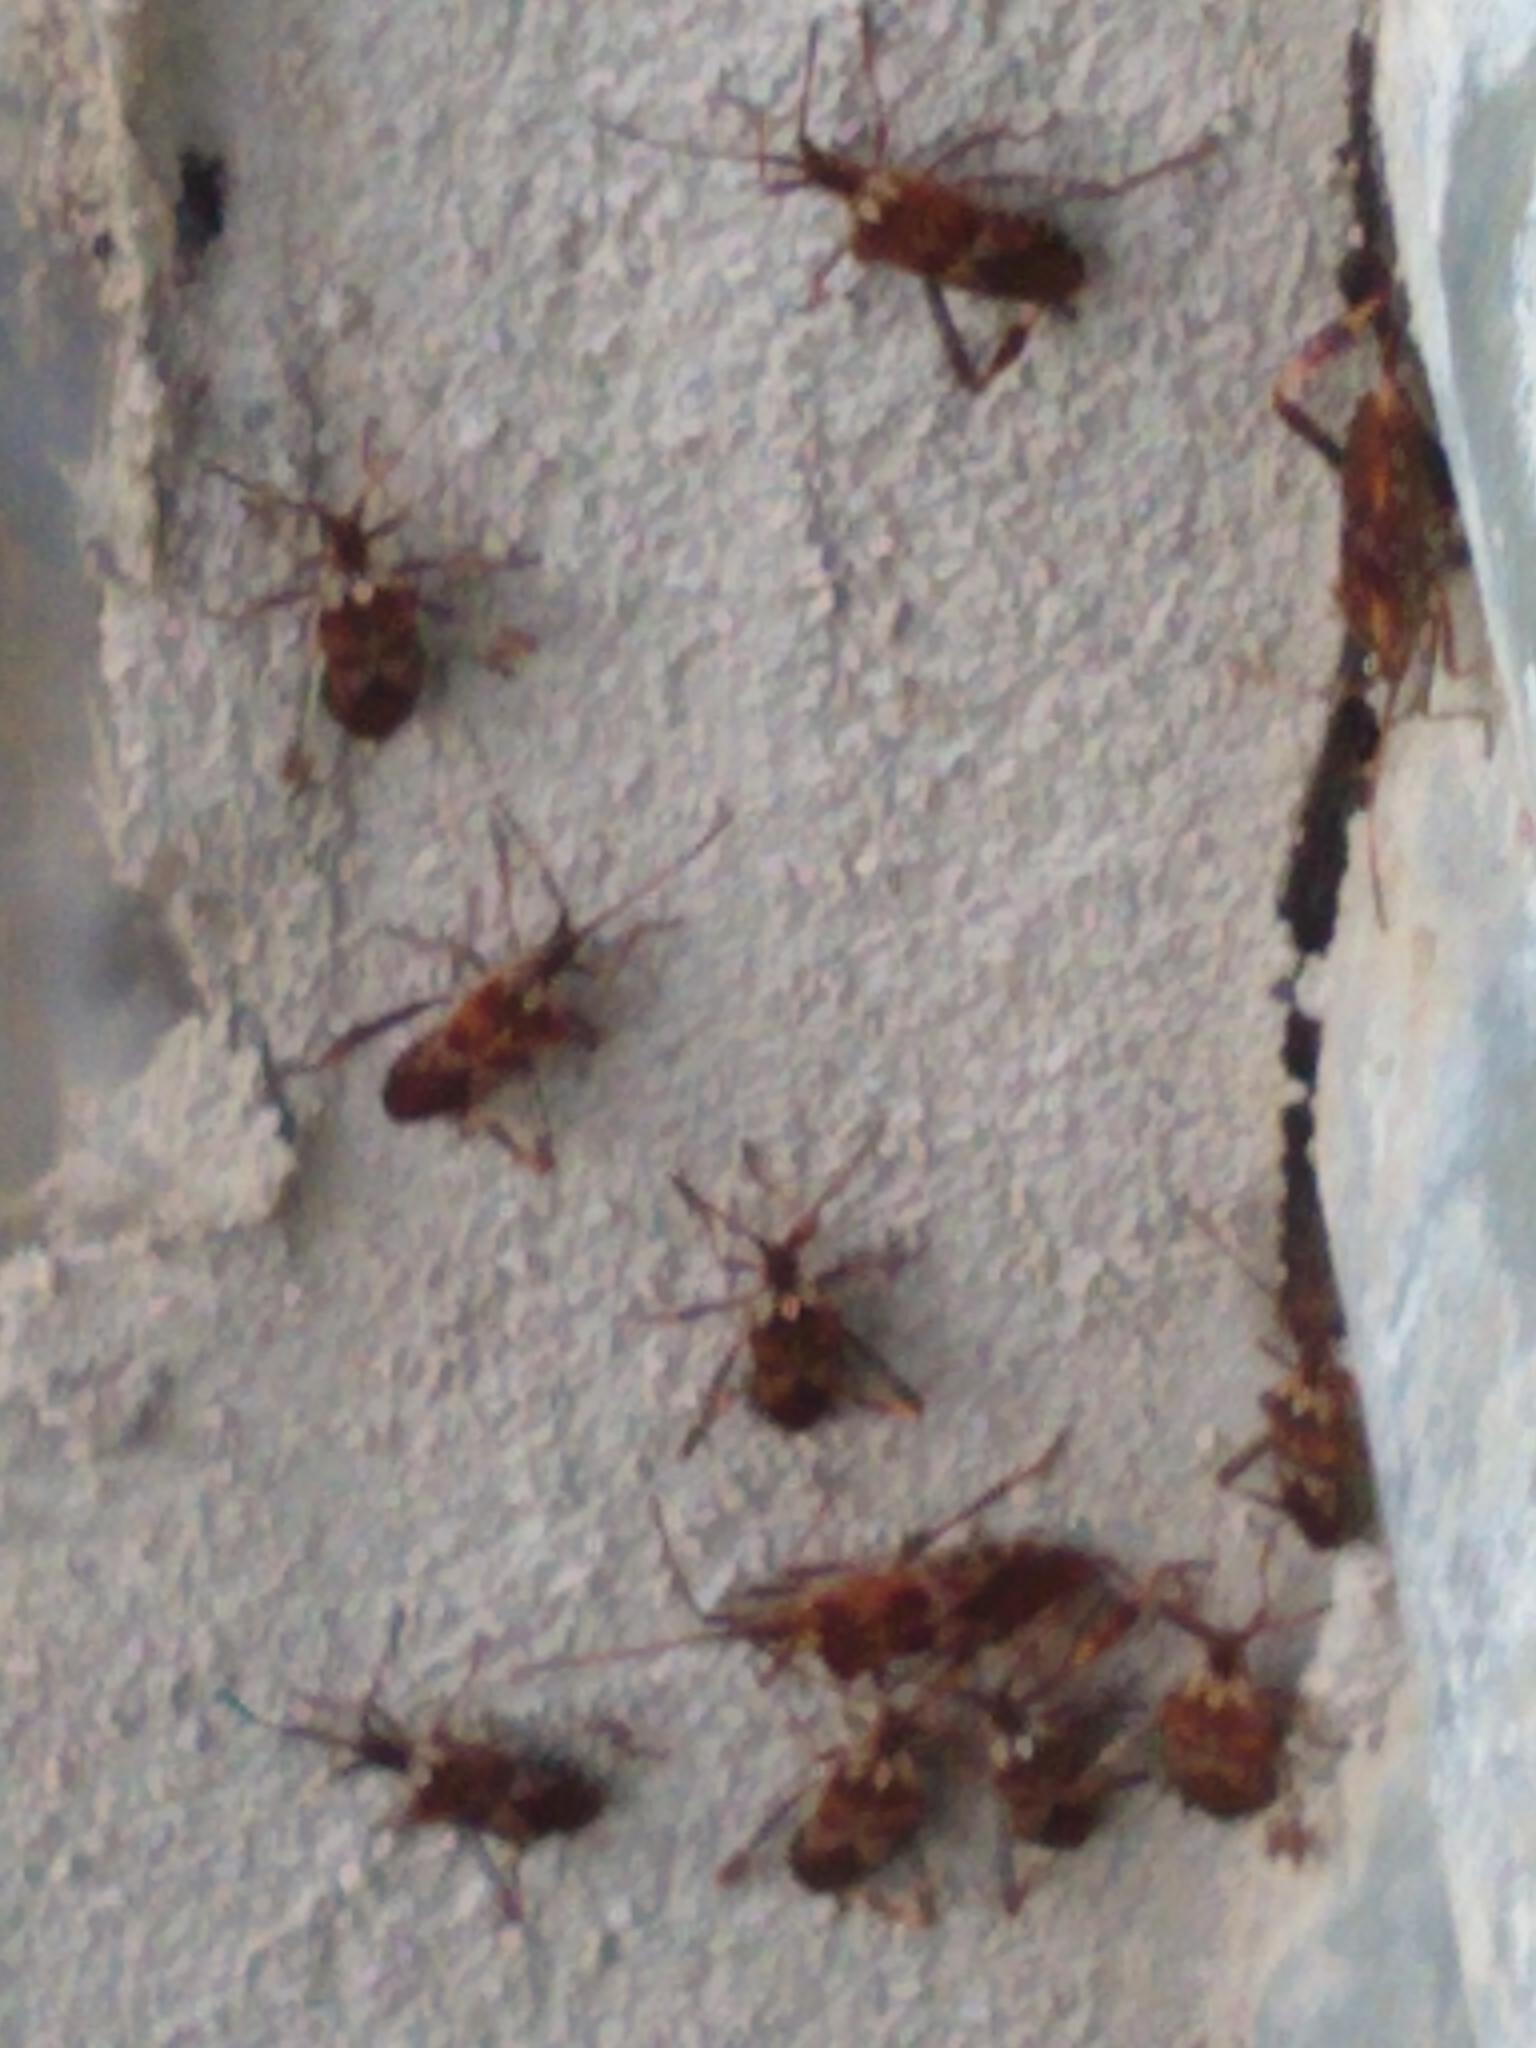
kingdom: Animalia
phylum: Arthropoda
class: Insecta
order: Hemiptera
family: Coreidae
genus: Leptoglossus
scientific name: Leptoglossus occidentalis
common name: Western conifer-seed bug
